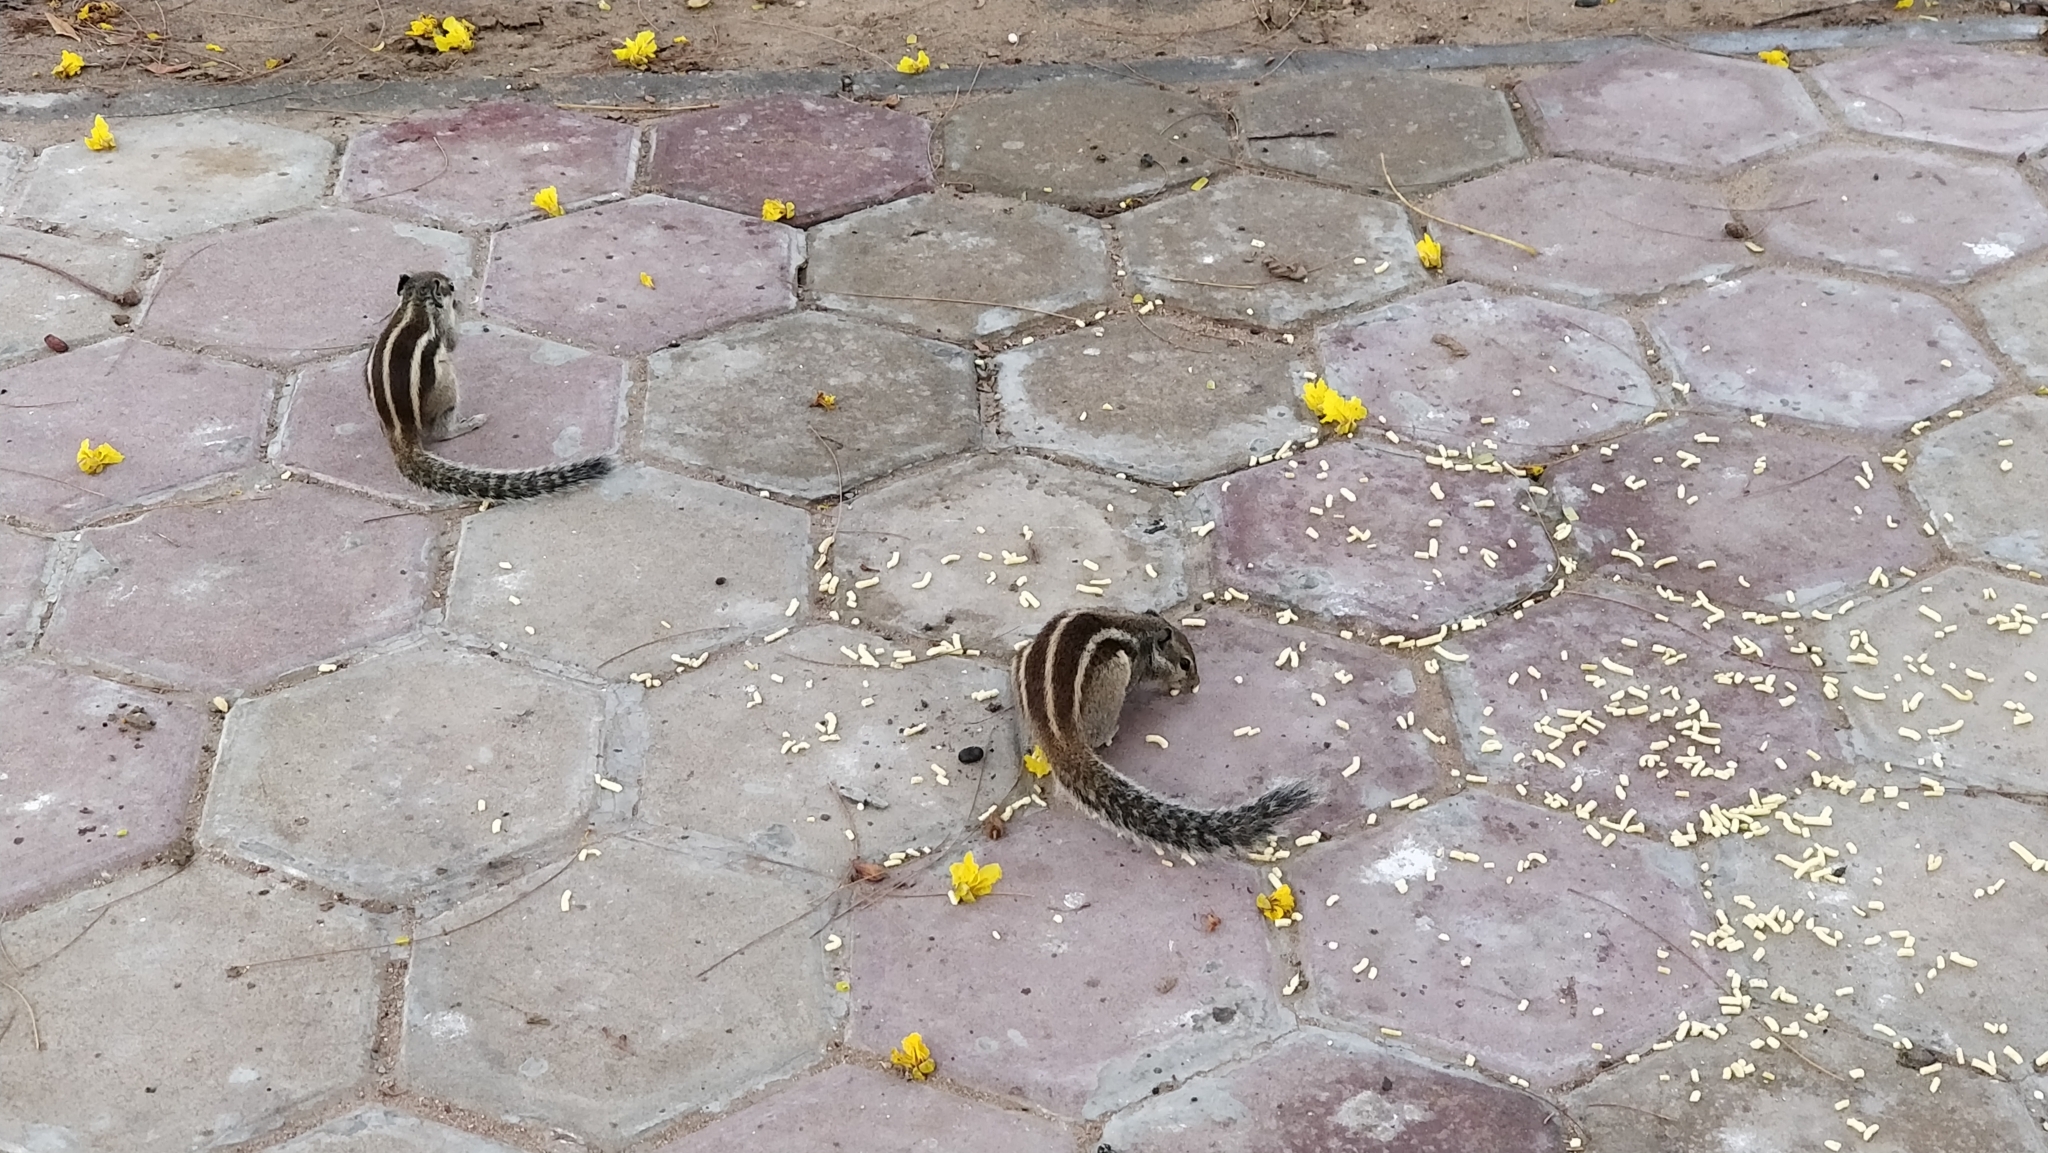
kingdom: Animalia
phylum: Chordata
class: Mammalia
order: Rodentia
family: Sciuridae
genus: Funambulus
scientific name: Funambulus pennantii
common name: Northern palm squirrel
